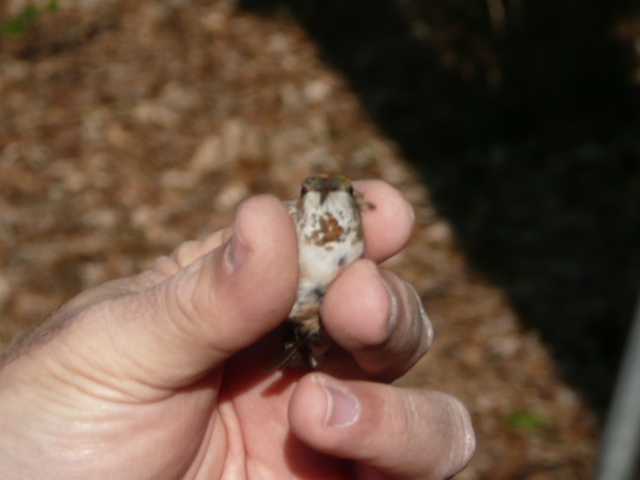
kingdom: Animalia
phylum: Chordata
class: Aves
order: Apodiformes
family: Trochilidae
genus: Selasphorus
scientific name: Selasphorus rufus
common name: Rufous hummingbird
